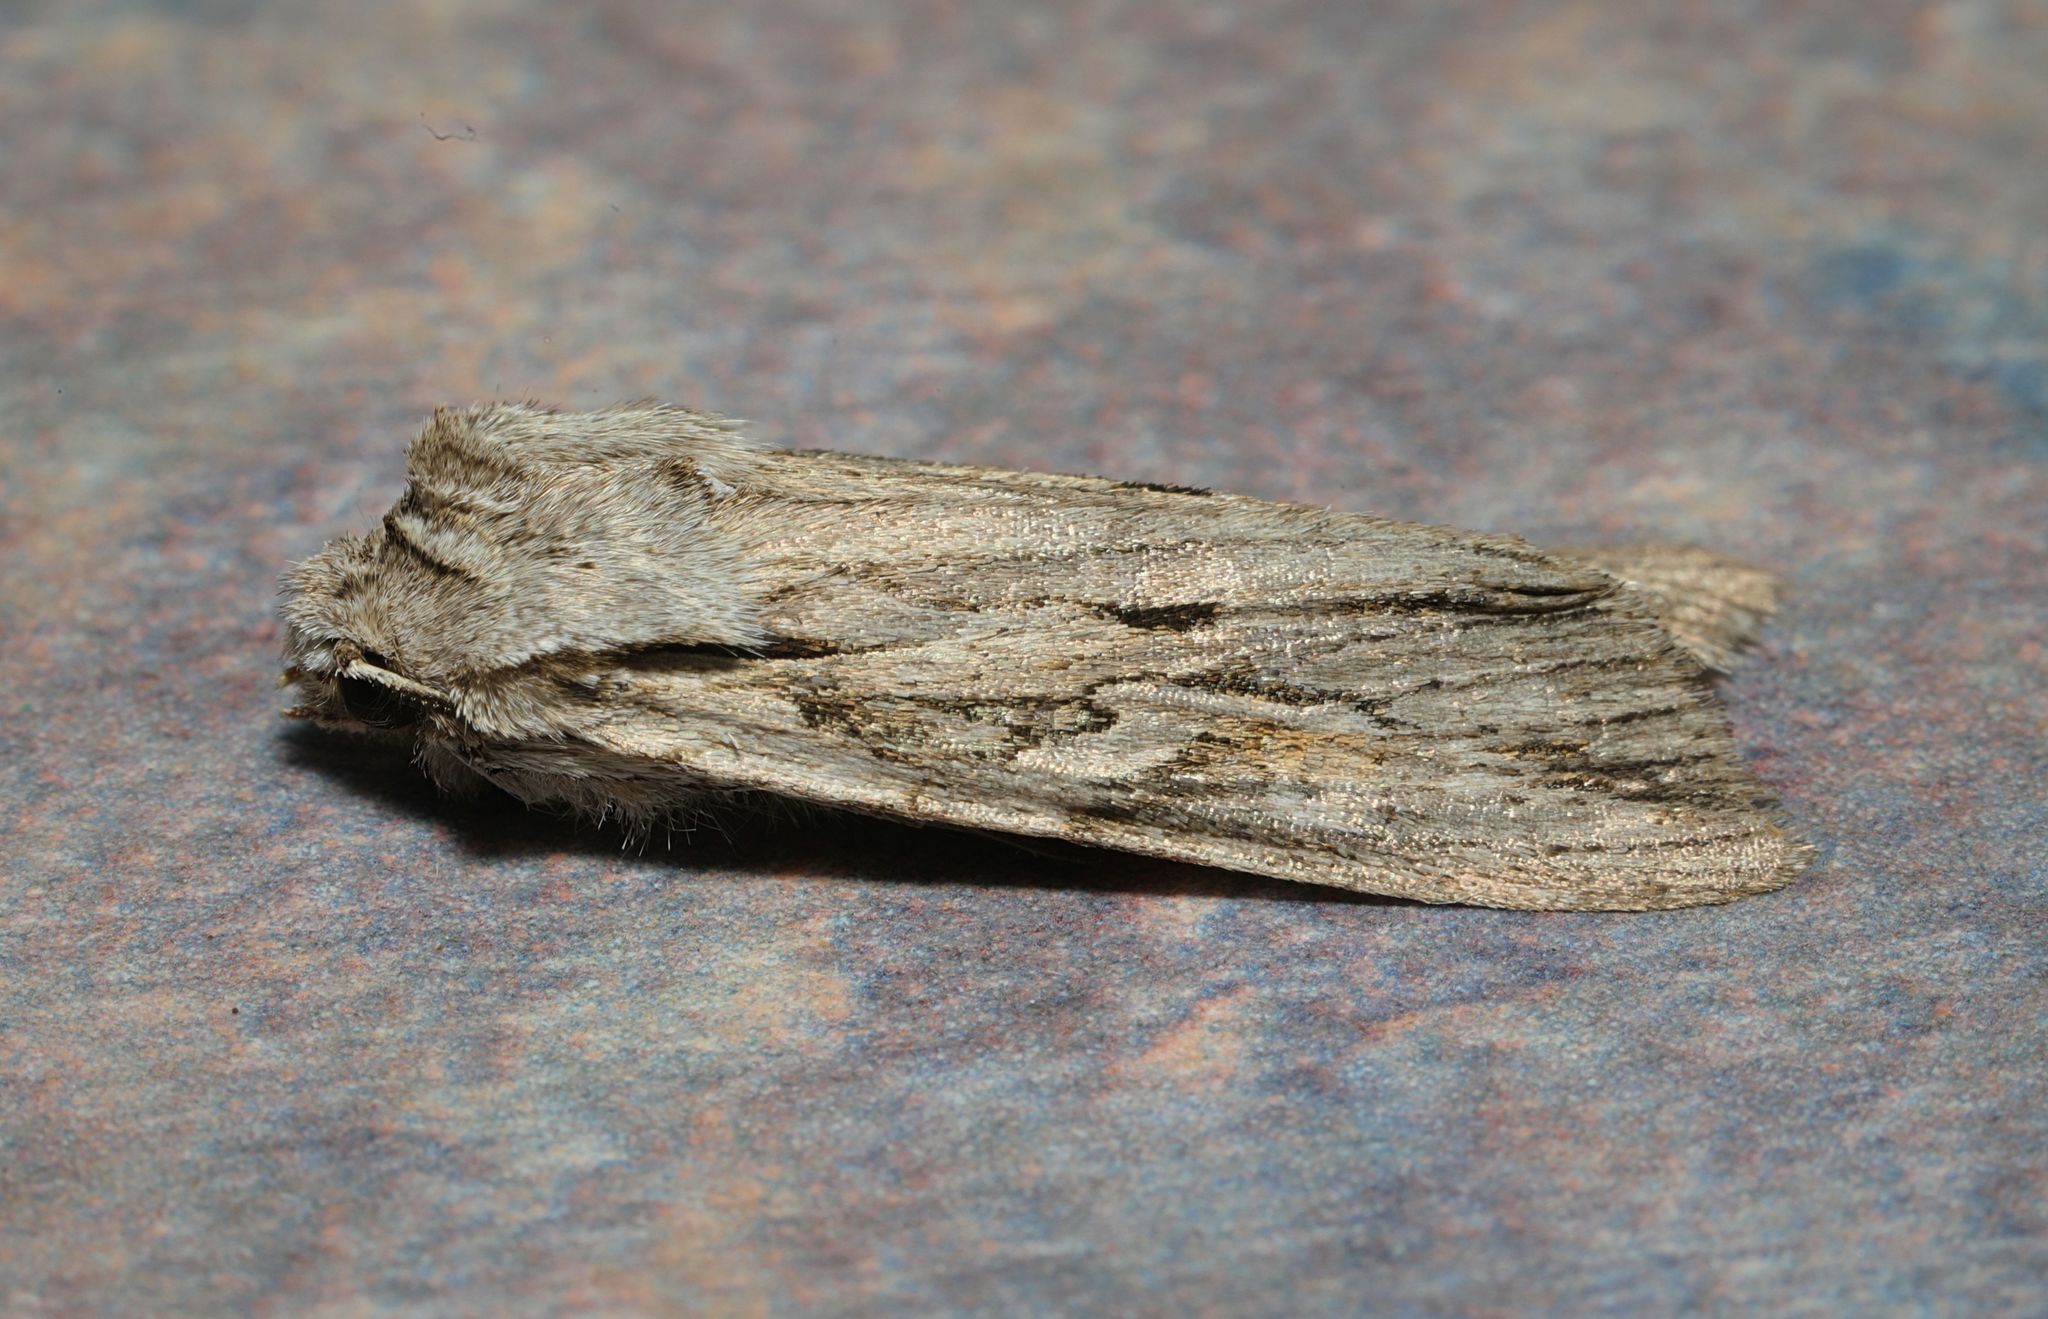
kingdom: Animalia
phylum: Arthropoda
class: Insecta
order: Lepidoptera
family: Noctuidae
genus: Lithophane
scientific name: Lithophane leautieri
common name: Blair's shoulder-knot
